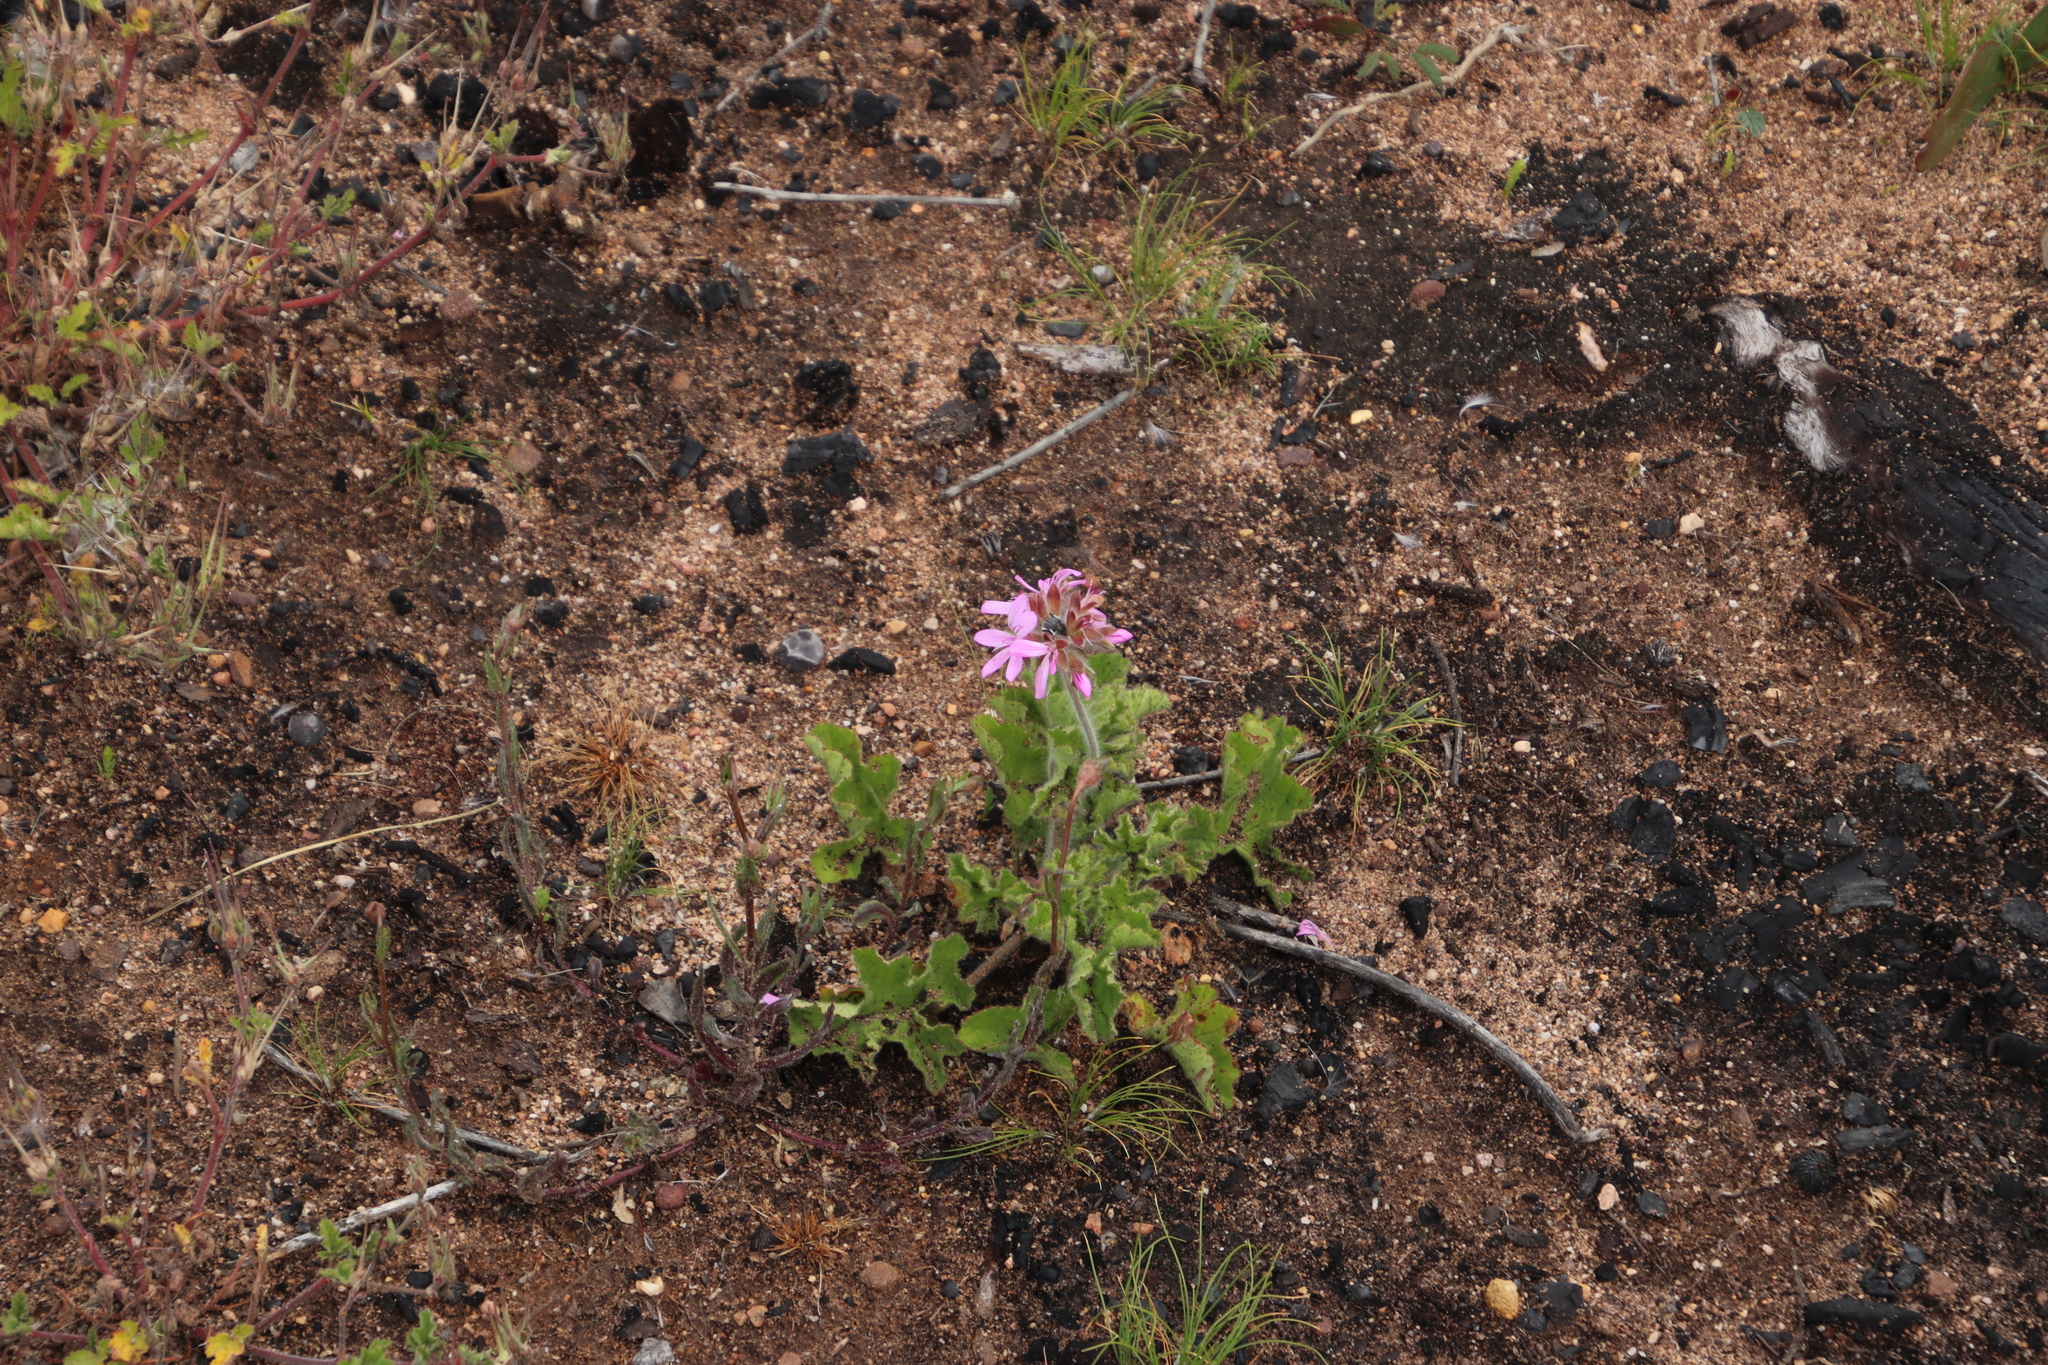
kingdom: Plantae
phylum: Tracheophyta
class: Magnoliopsida
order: Geraniales
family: Geraniaceae
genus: Pelargonium
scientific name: Pelargonium capitatum
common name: Rose scented geranium
